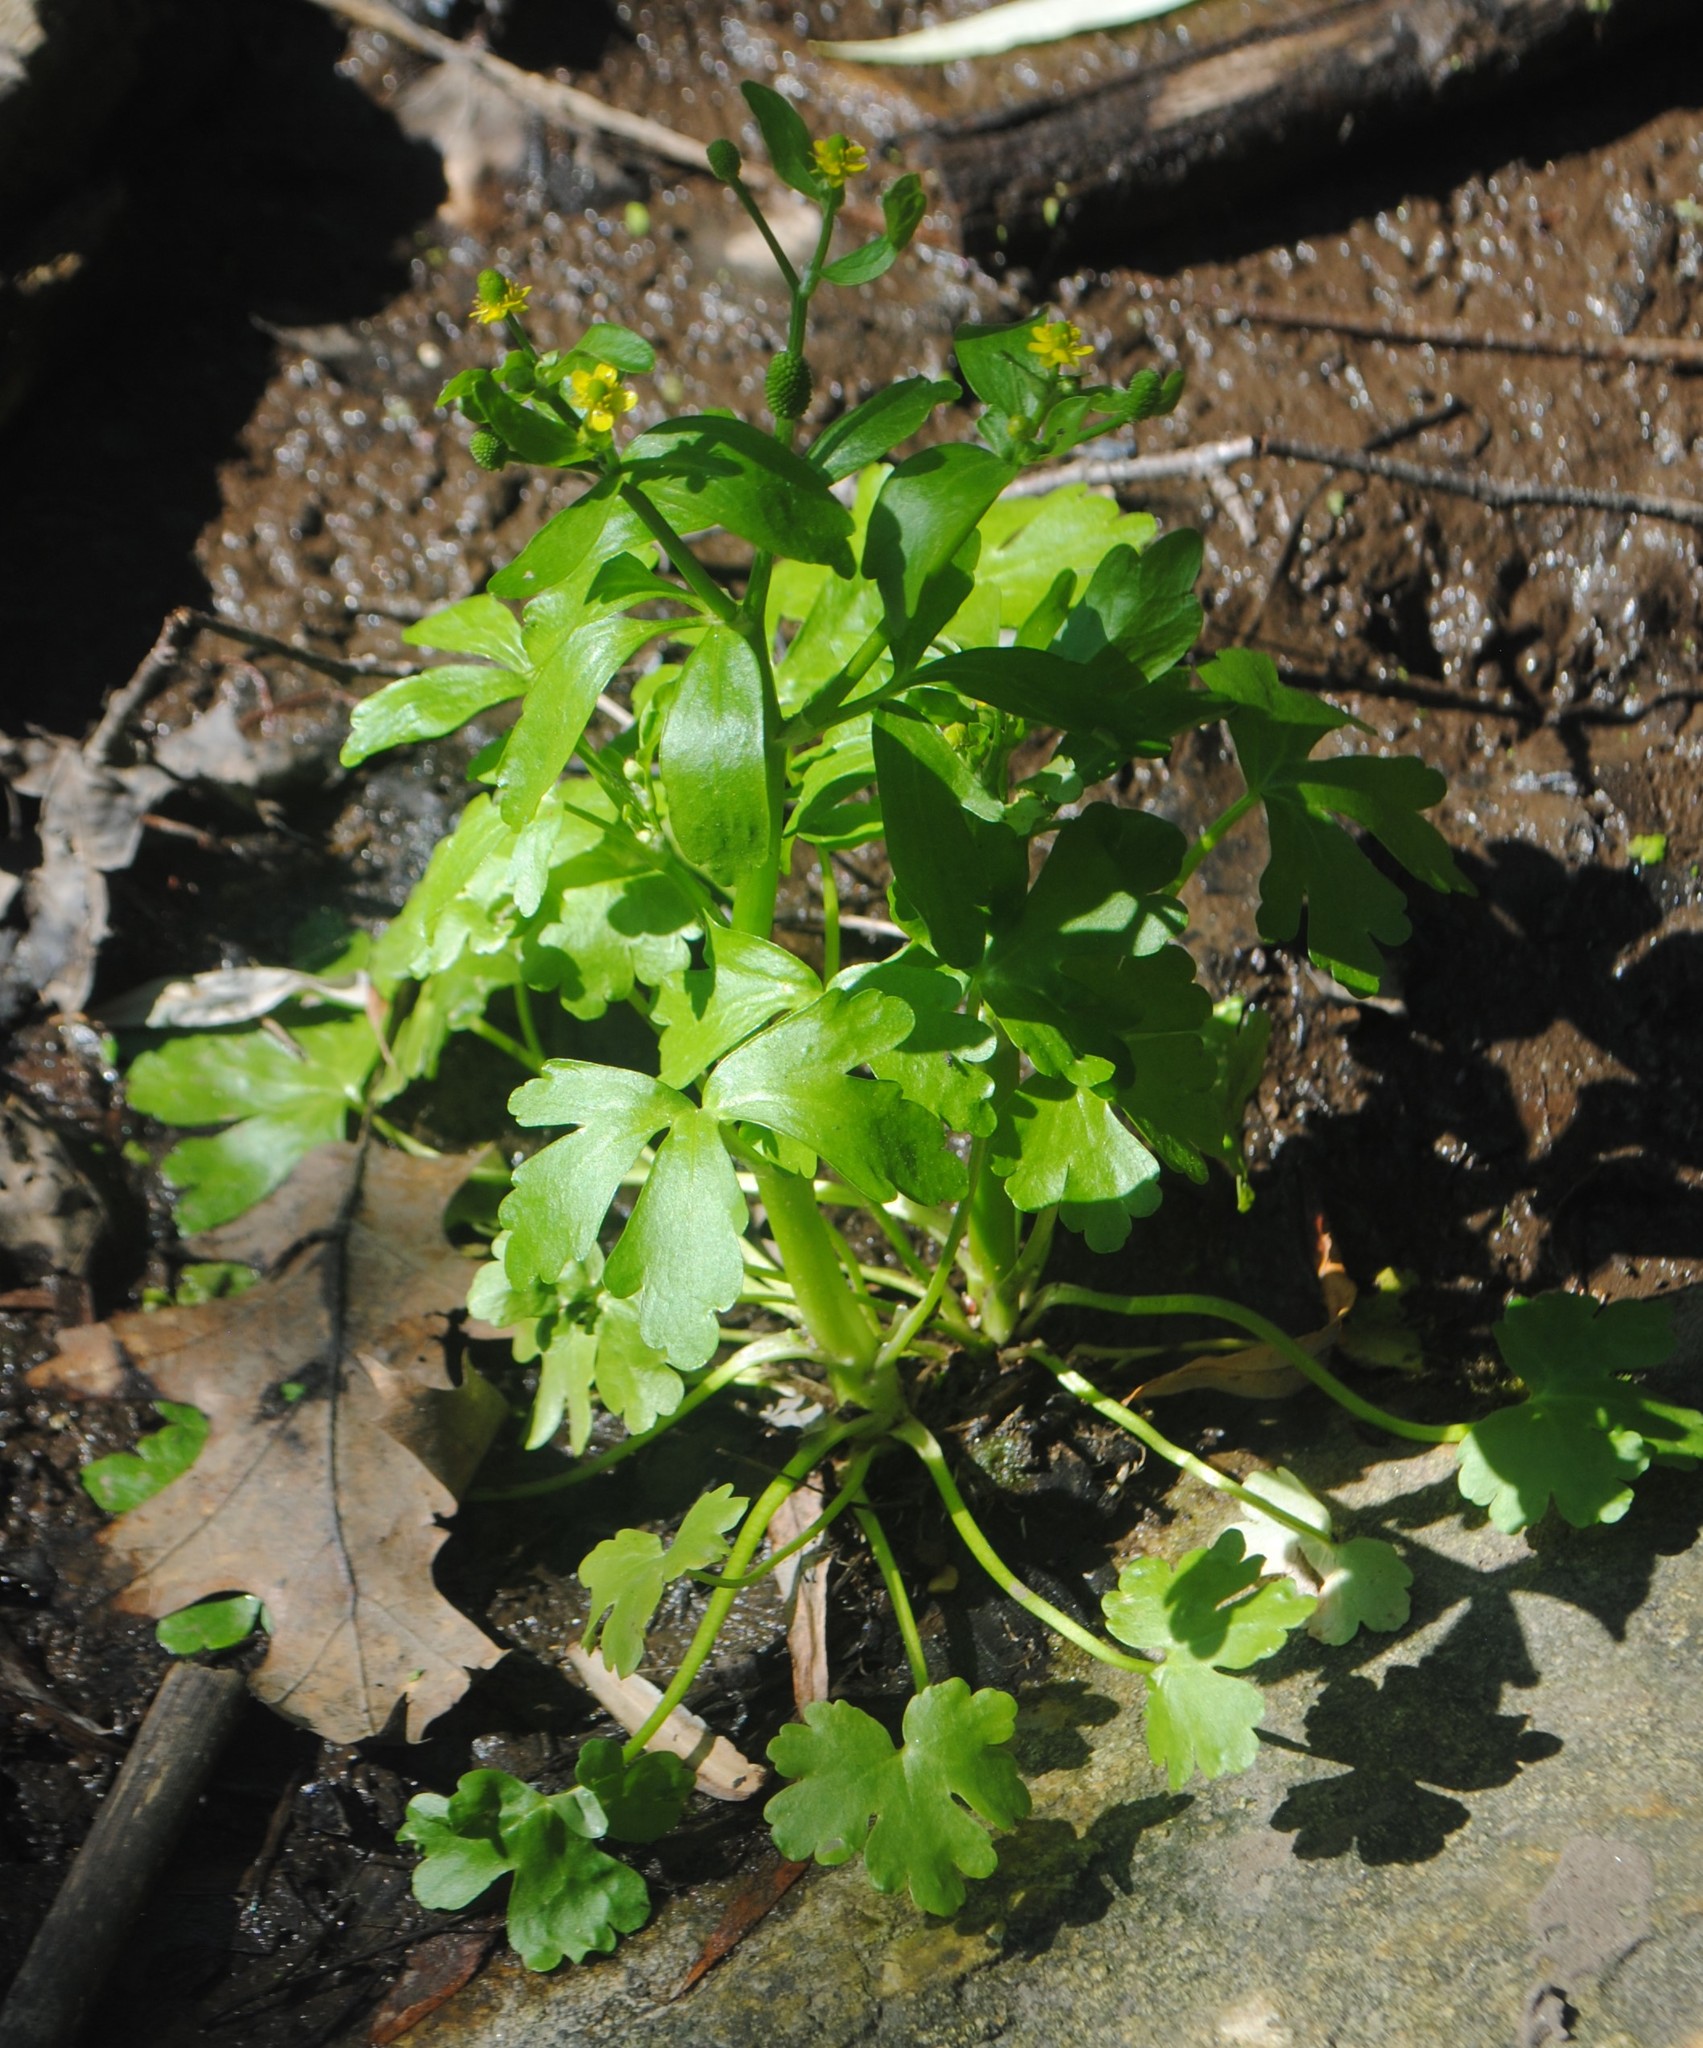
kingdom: Plantae
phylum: Tracheophyta
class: Magnoliopsida
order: Ranunculales
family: Ranunculaceae
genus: Ranunculus
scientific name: Ranunculus sceleratus
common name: Celery-leaved buttercup
